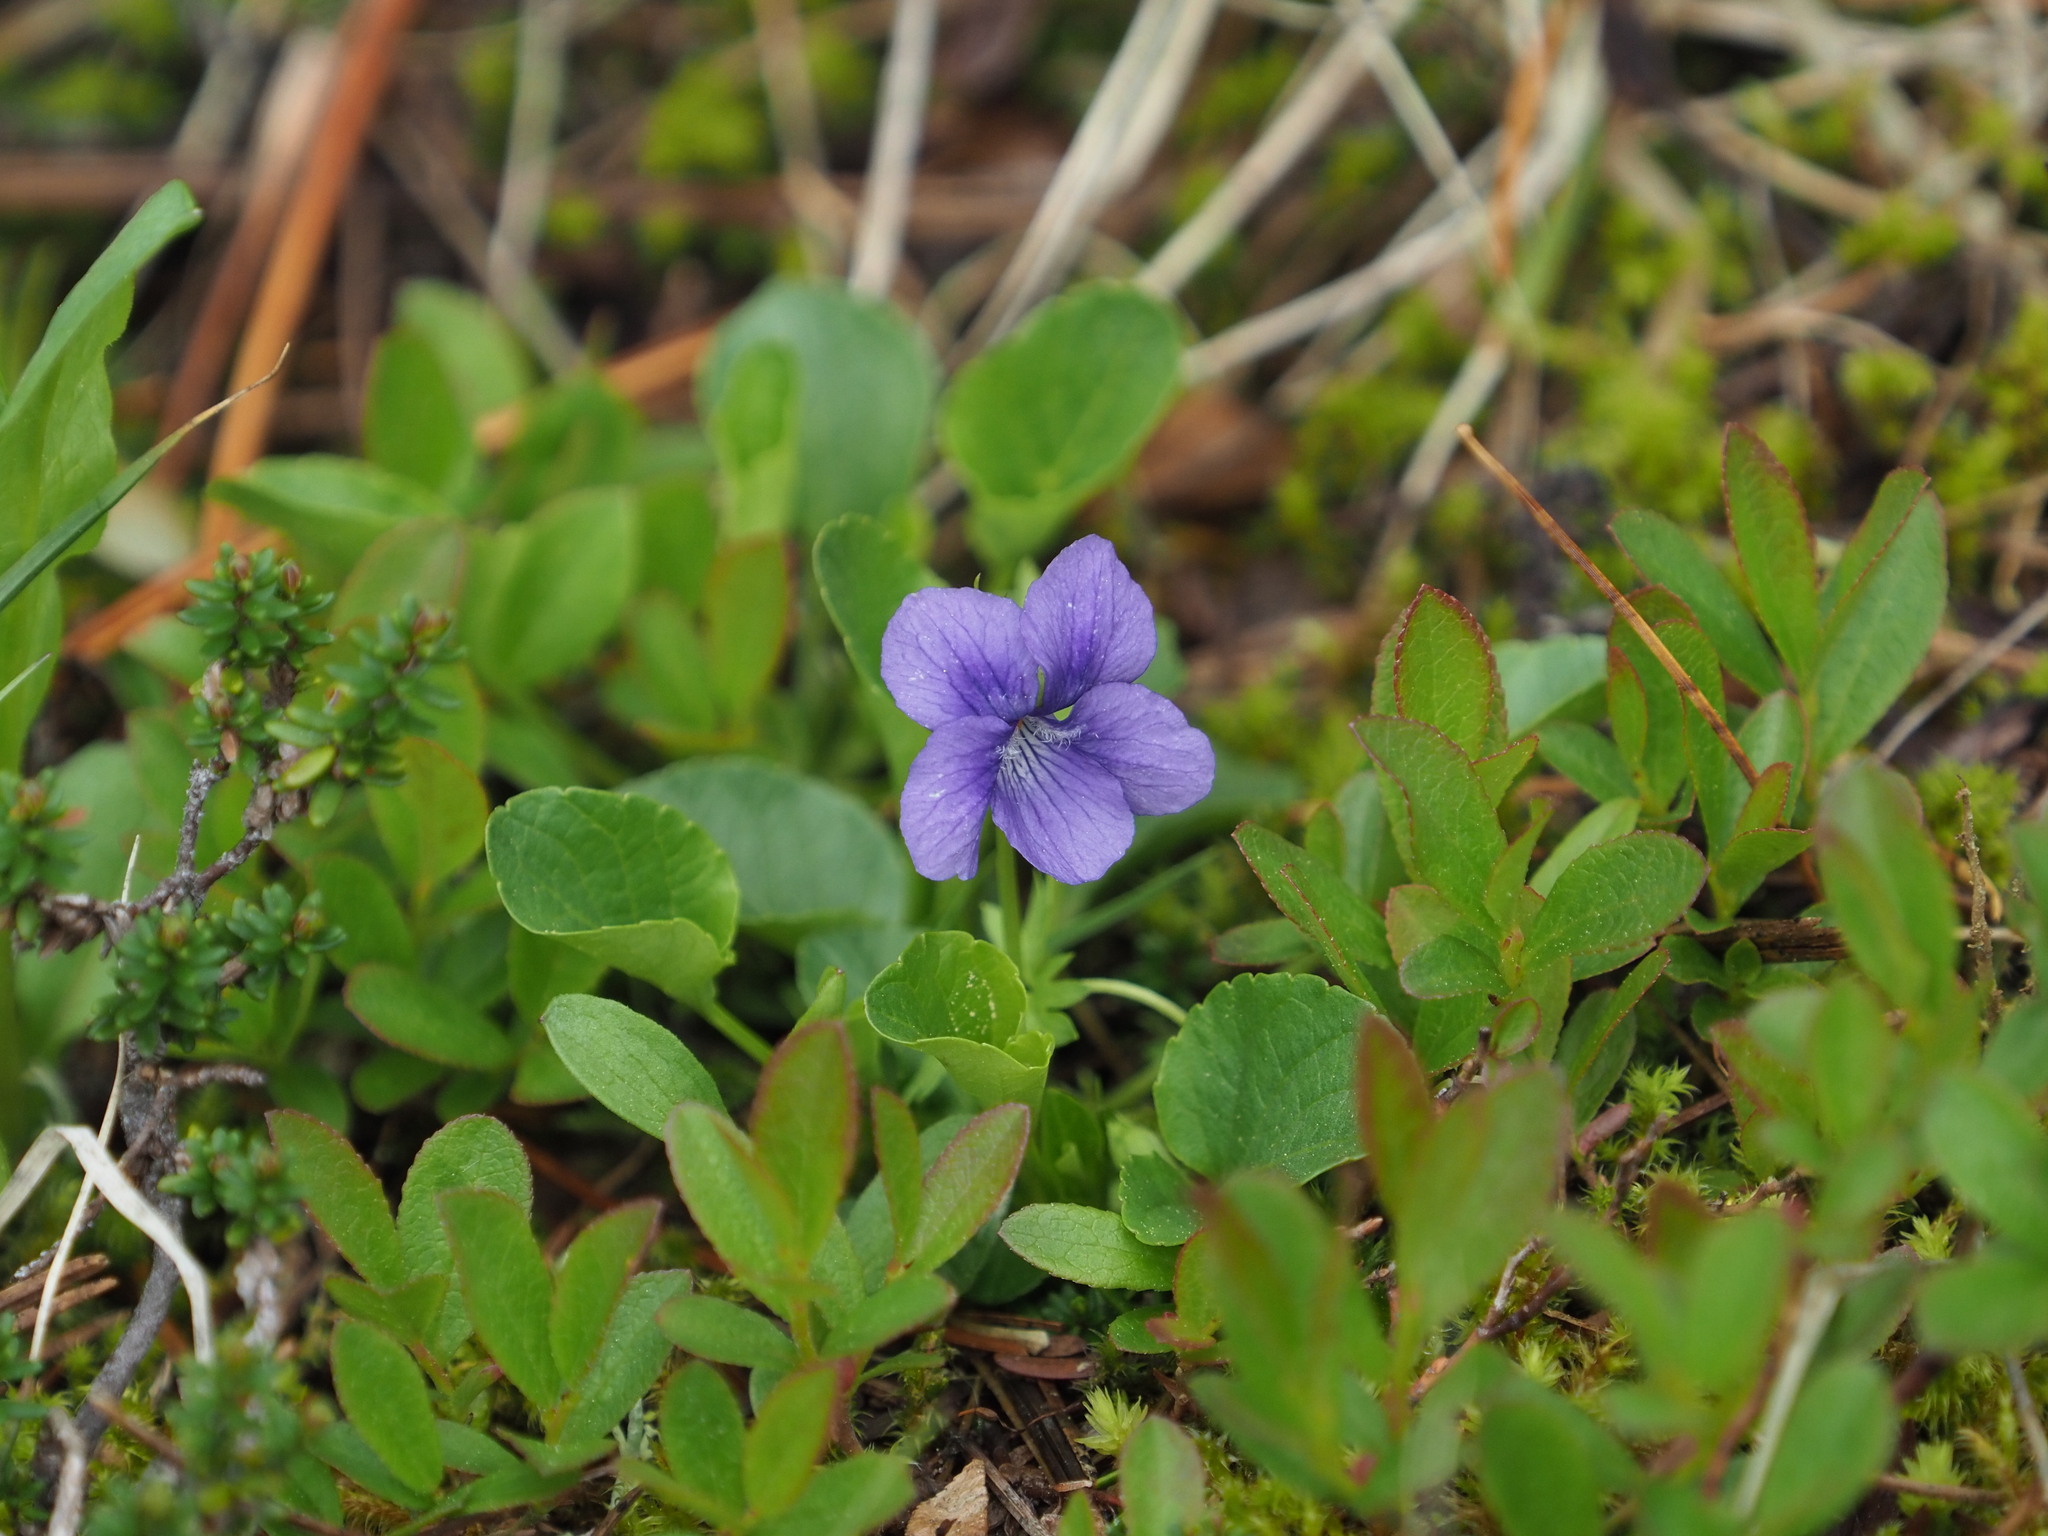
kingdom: Plantae
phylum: Tracheophyta
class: Magnoliopsida
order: Malpighiales
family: Violaceae
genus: Viola
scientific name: Viola adunca
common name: Sand violet
